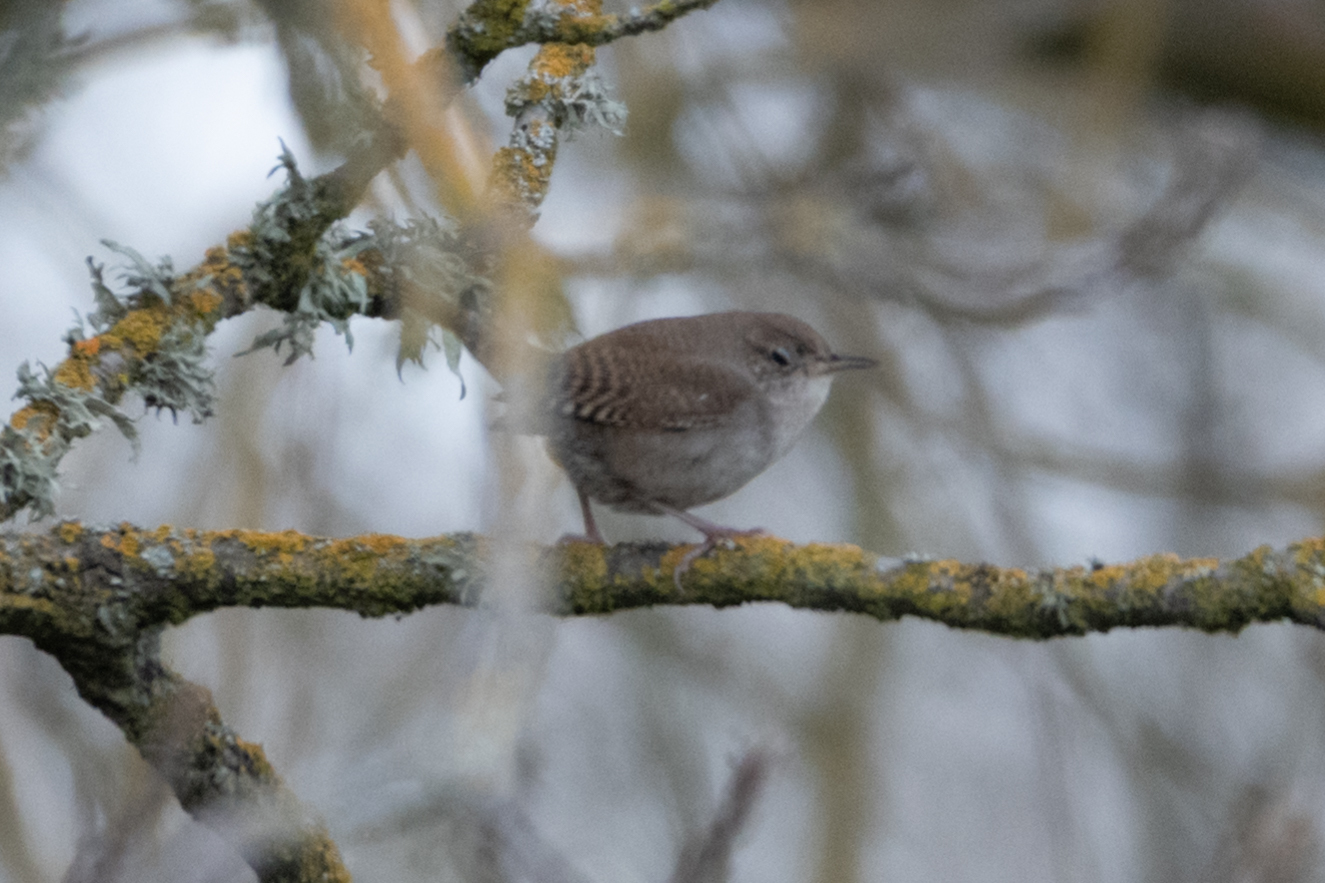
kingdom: Animalia
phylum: Chordata
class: Aves
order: Passeriformes
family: Troglodytidae
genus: Troglodytes
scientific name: Troglodytes aedon
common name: House wren
